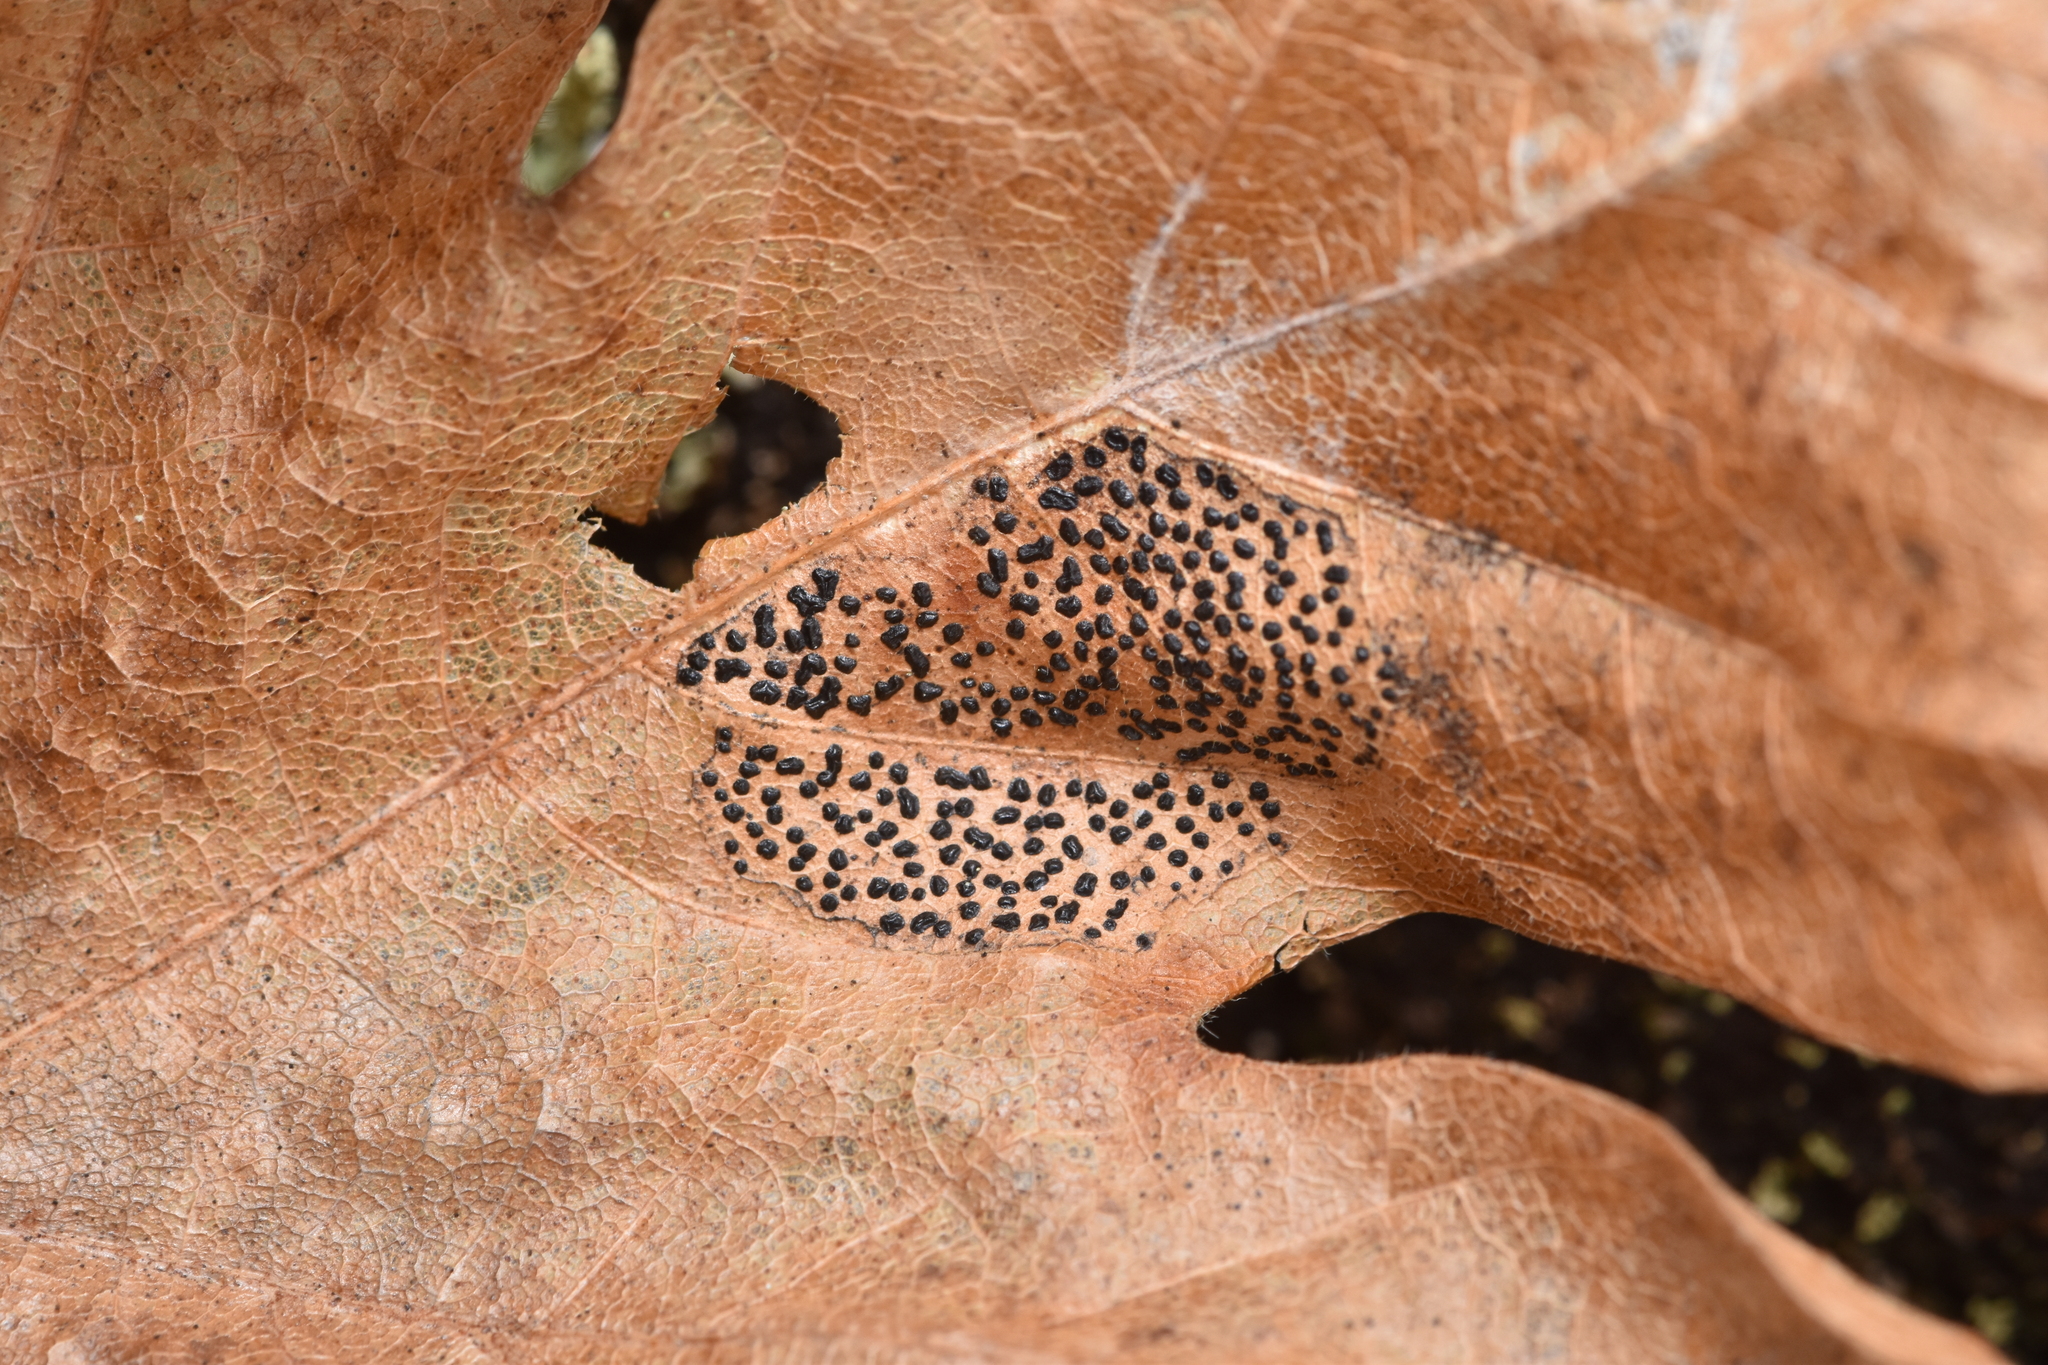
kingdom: Fungi
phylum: Ascomycota
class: Leotiomycetes
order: Rhytismatales
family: Rhytismataceae
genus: Rhytisma
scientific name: Rhytisma punctatum
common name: Speckled tar spot
